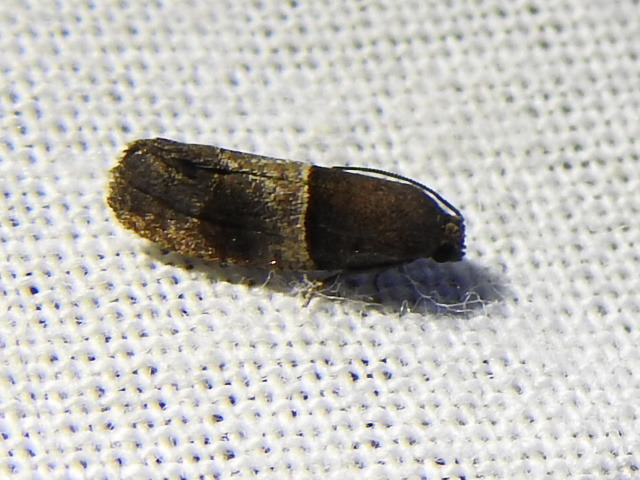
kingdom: Animalia
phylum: Arthropoda
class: Insecta
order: Lepidoptera
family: Tortricidae
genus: Larisa
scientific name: Larisa subsolana
